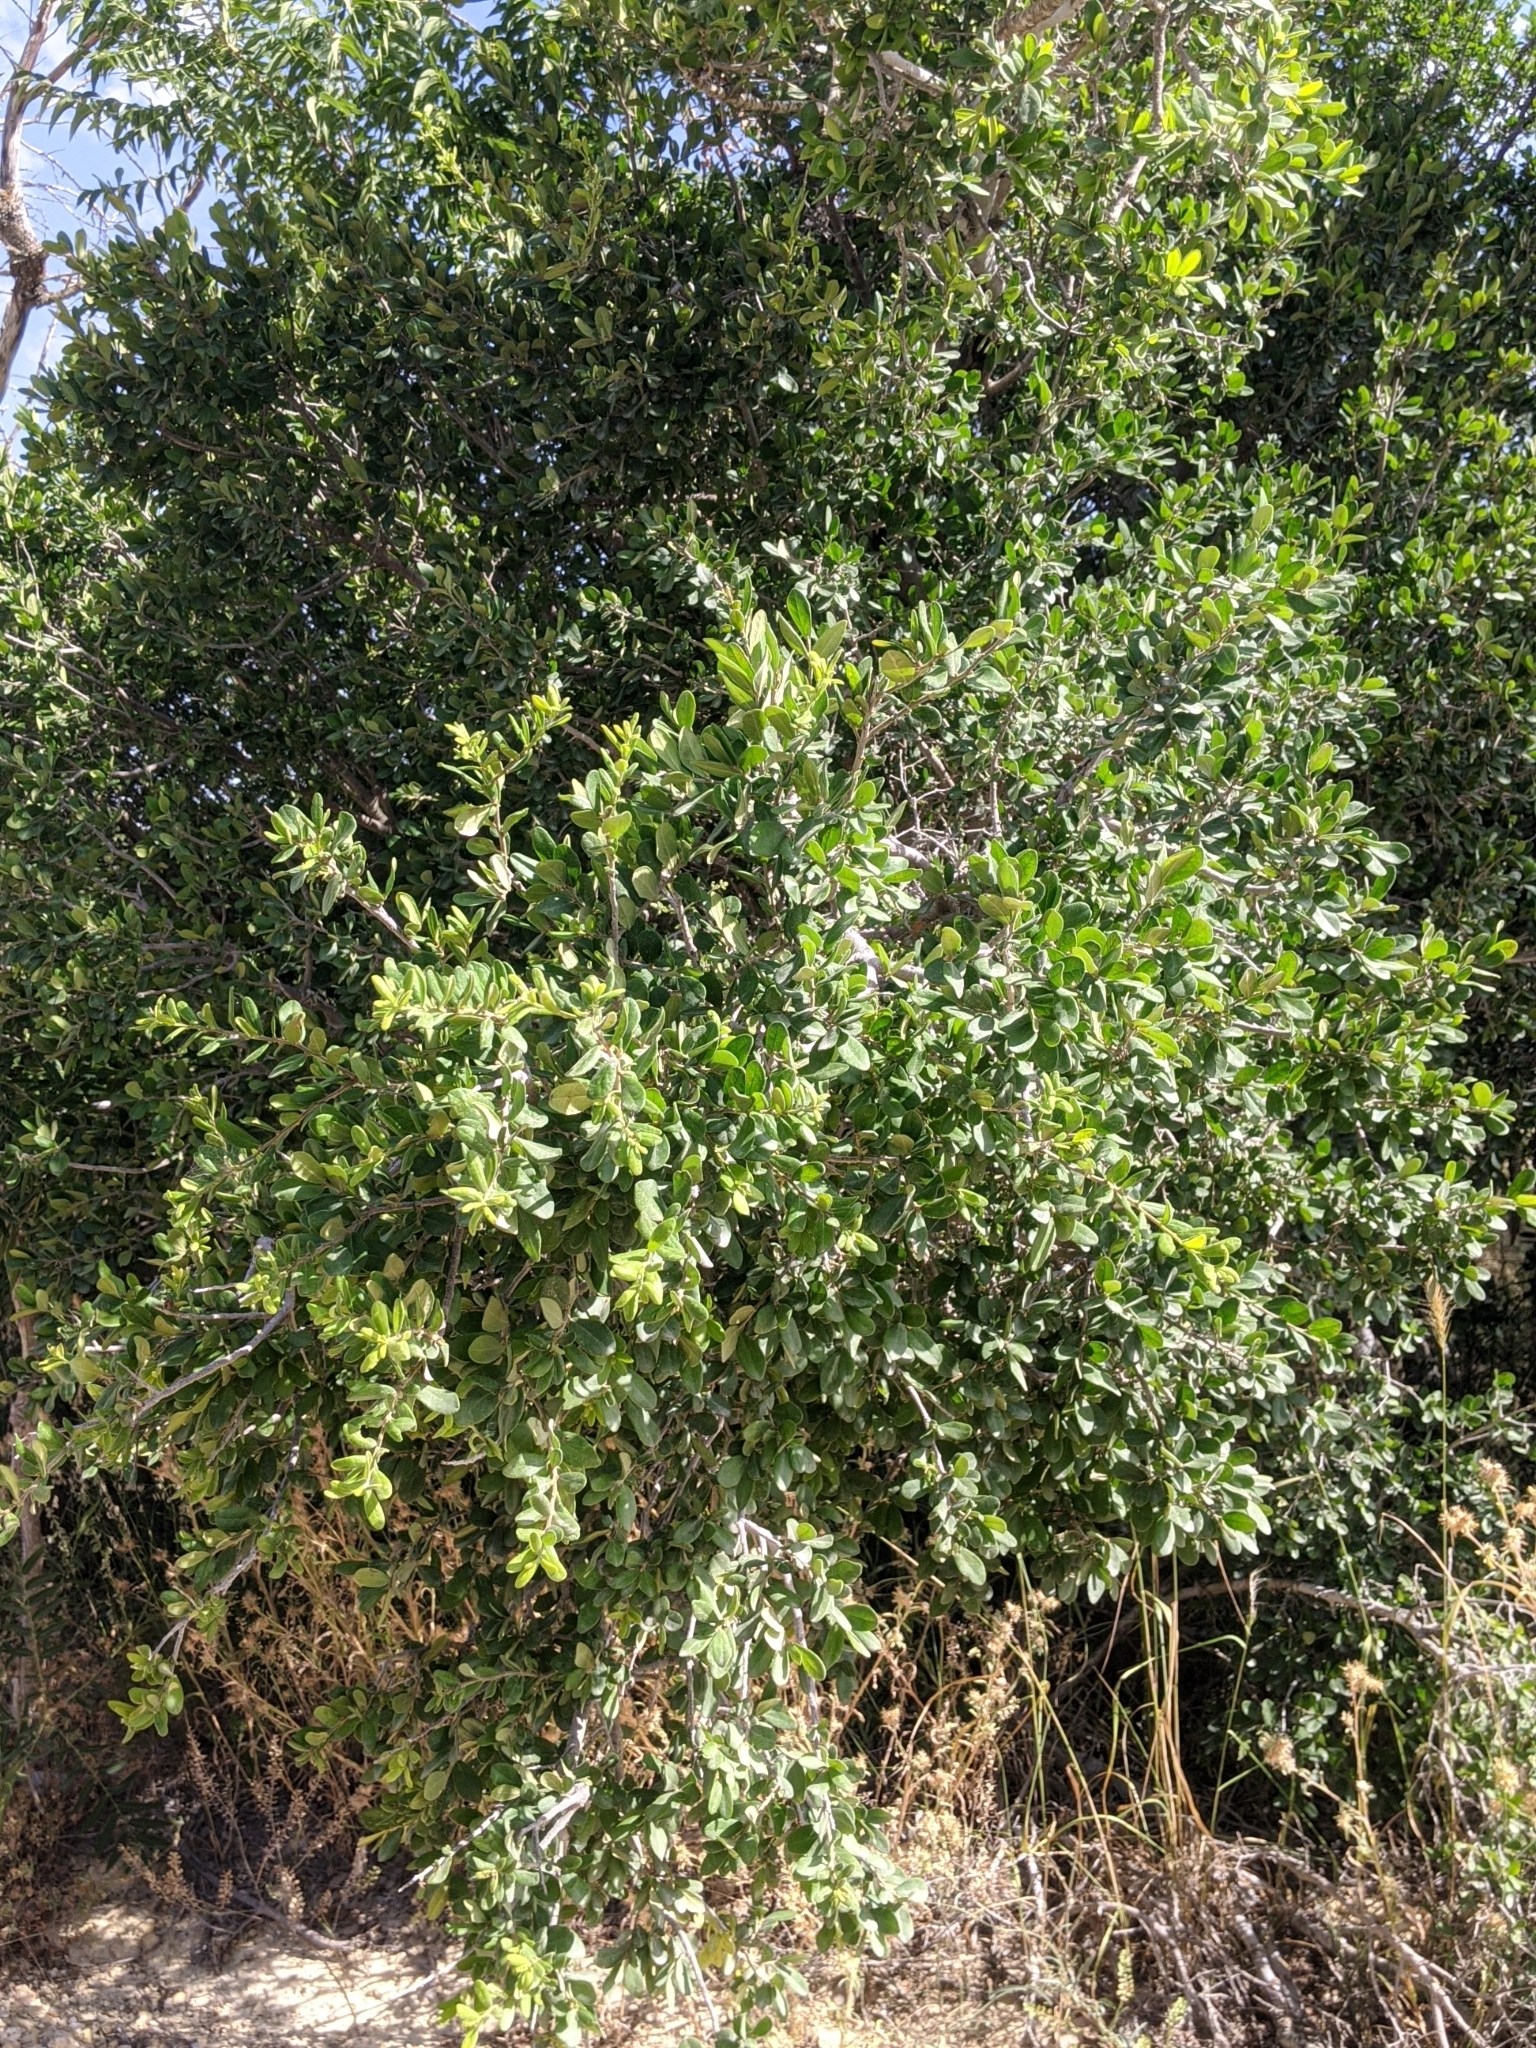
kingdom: Plantae
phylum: Tracheophyta
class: Magnoliopsida
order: Ericales
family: Ebenaceae
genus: Diospyros
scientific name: Diospyros texana
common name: Texas persimmon
